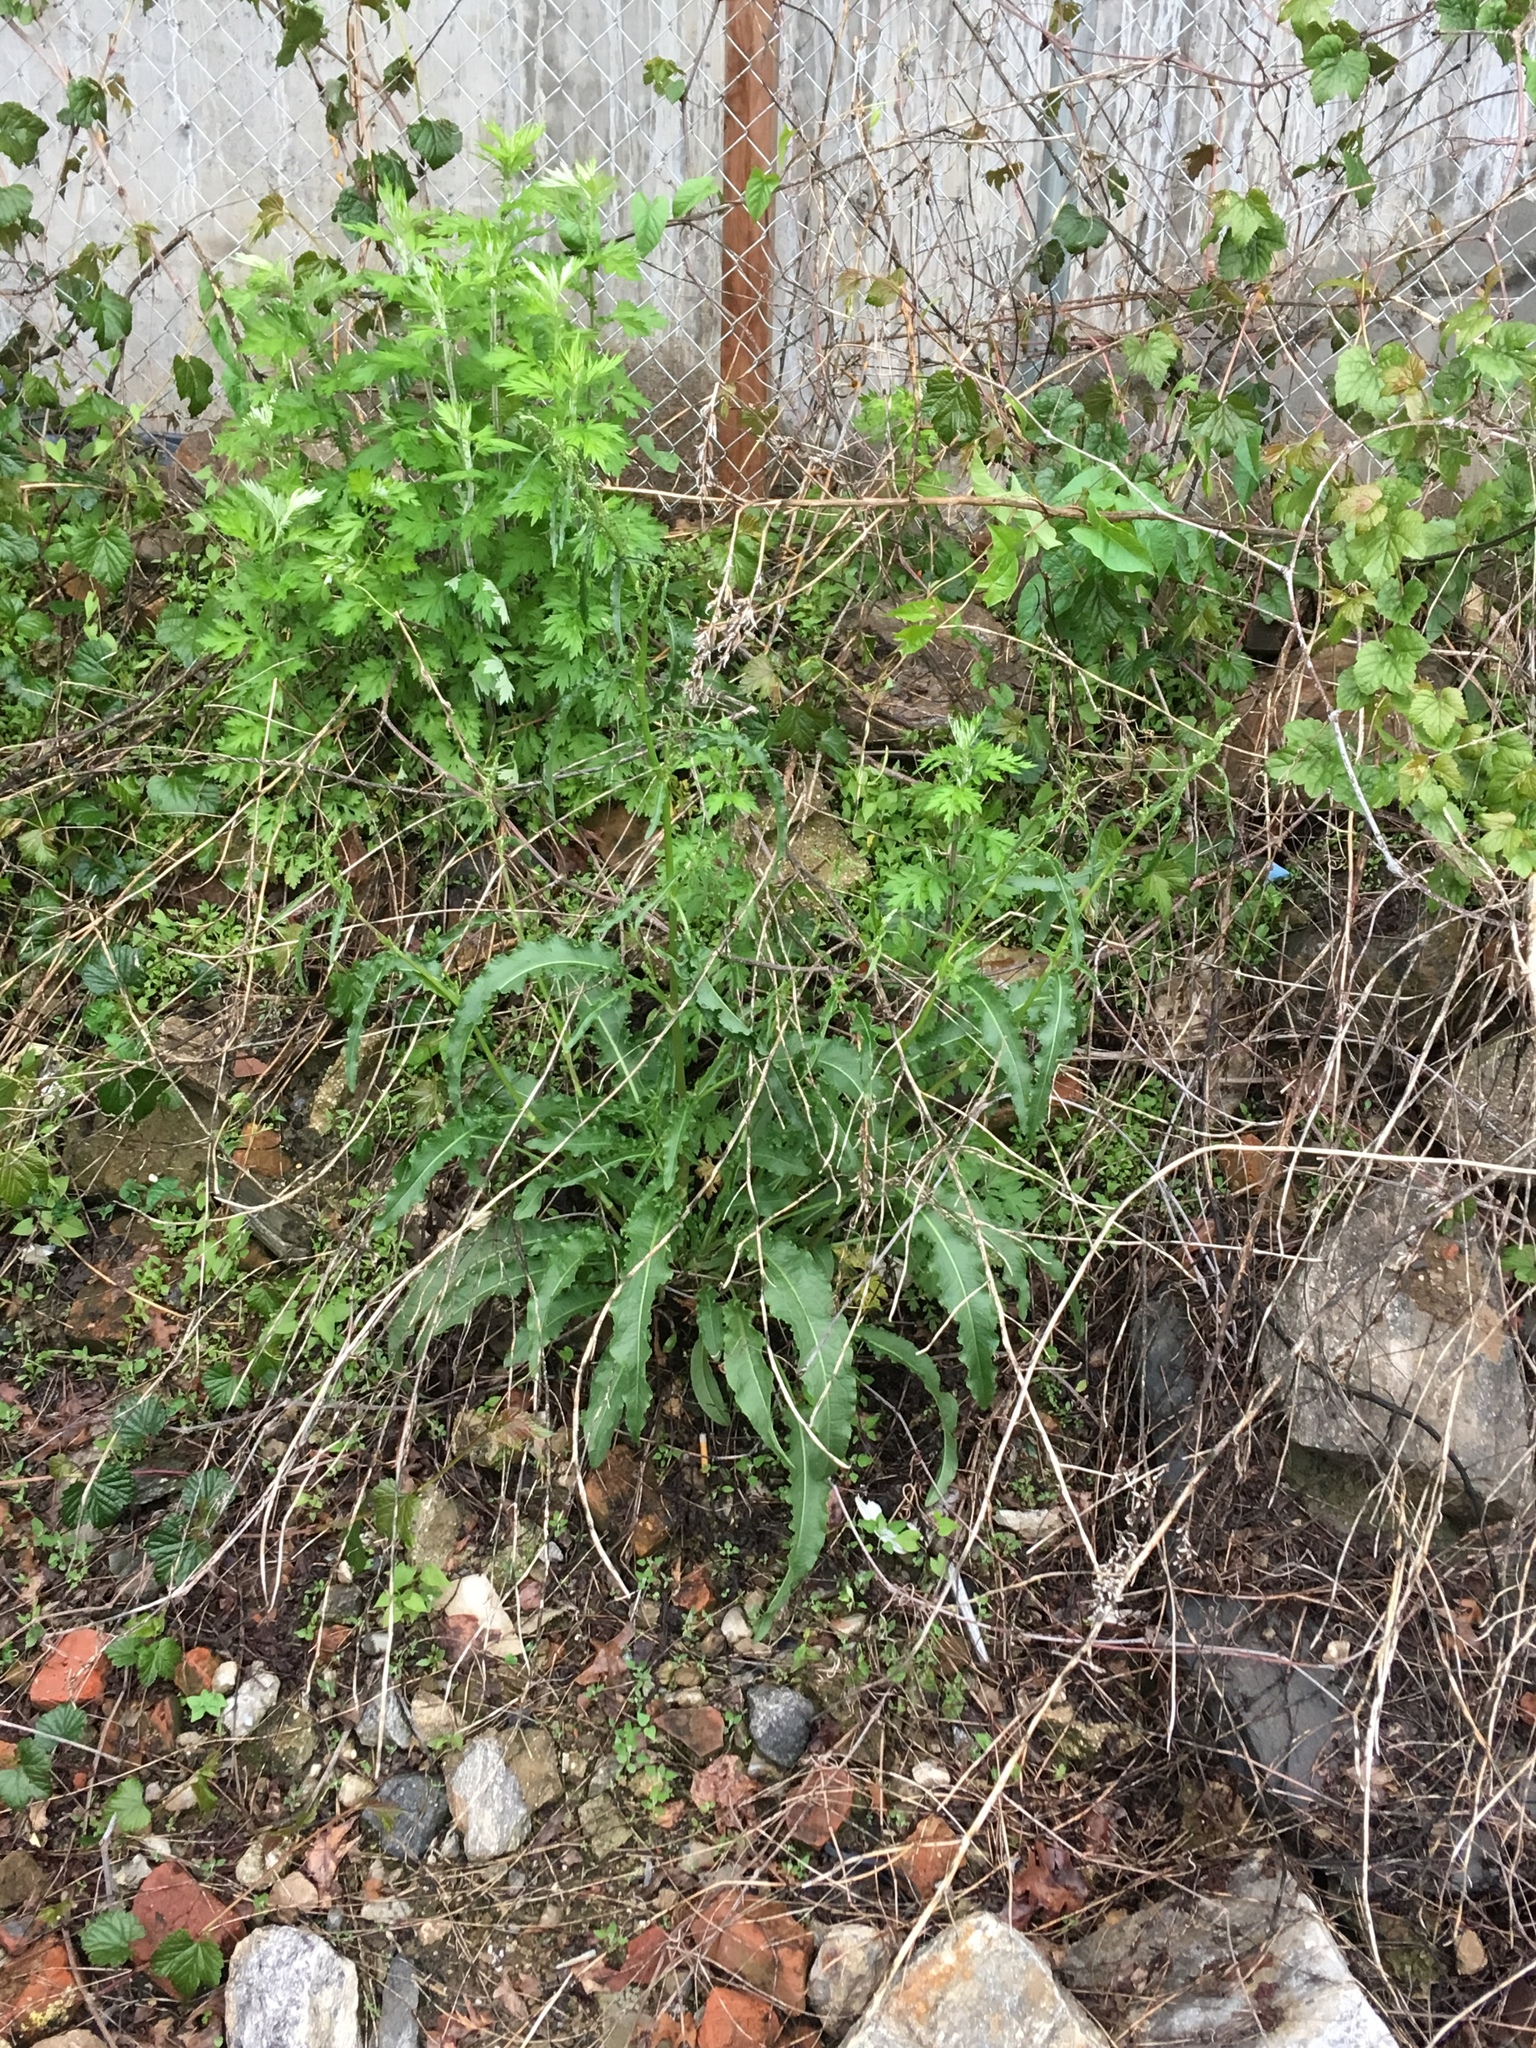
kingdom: Plantae
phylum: Tracheophyta
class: Magnoliopsida
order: Caryophyllales
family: Polygonaceae
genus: Rumex
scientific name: Rumex crispus
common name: Curled dock
